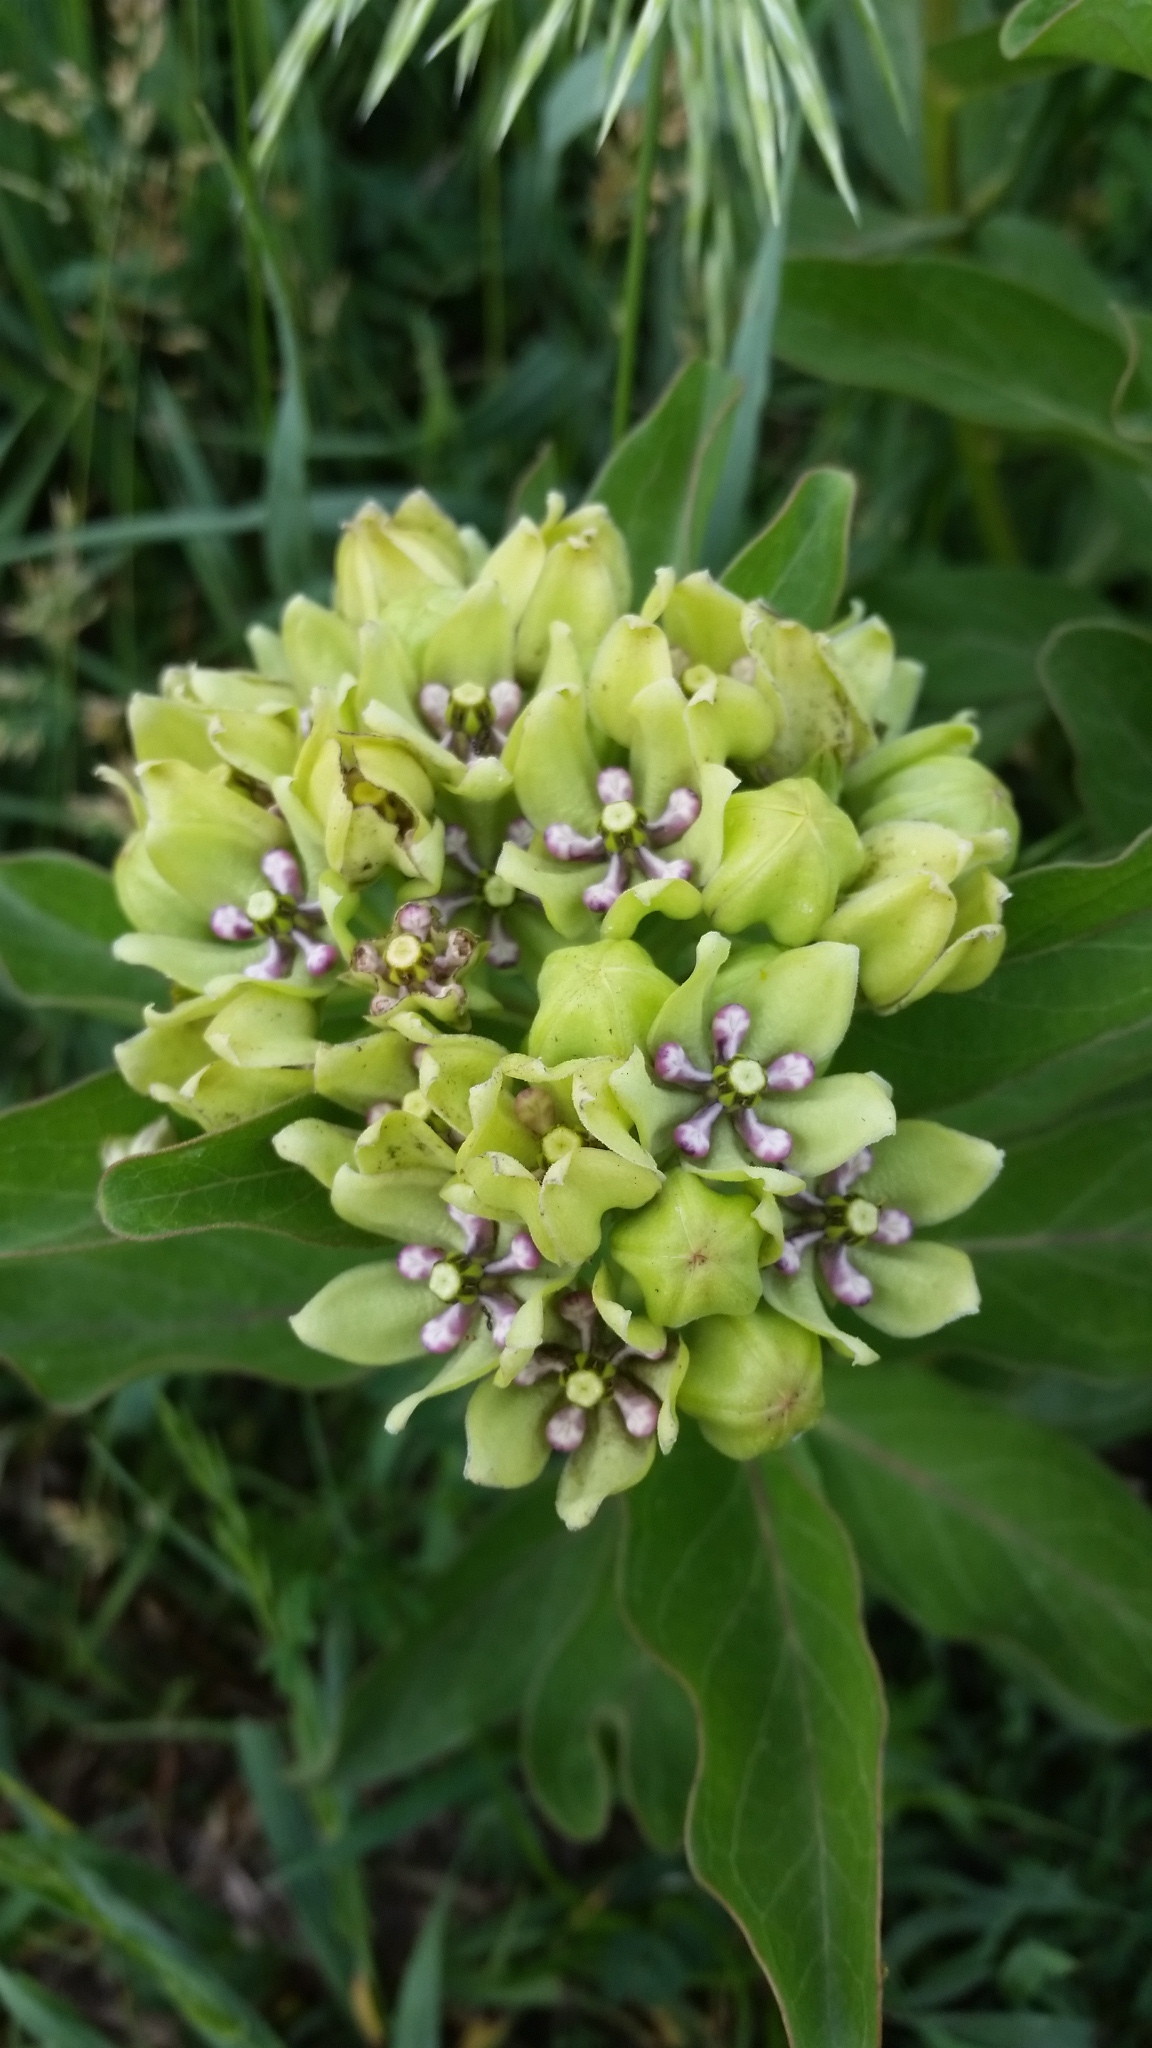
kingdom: Plantae
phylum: Tracheophyta
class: Magnoliopsida
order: Gentianales
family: Apocynaceae
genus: Asclepias
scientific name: Asclepias viridis
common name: Antelope-horns
